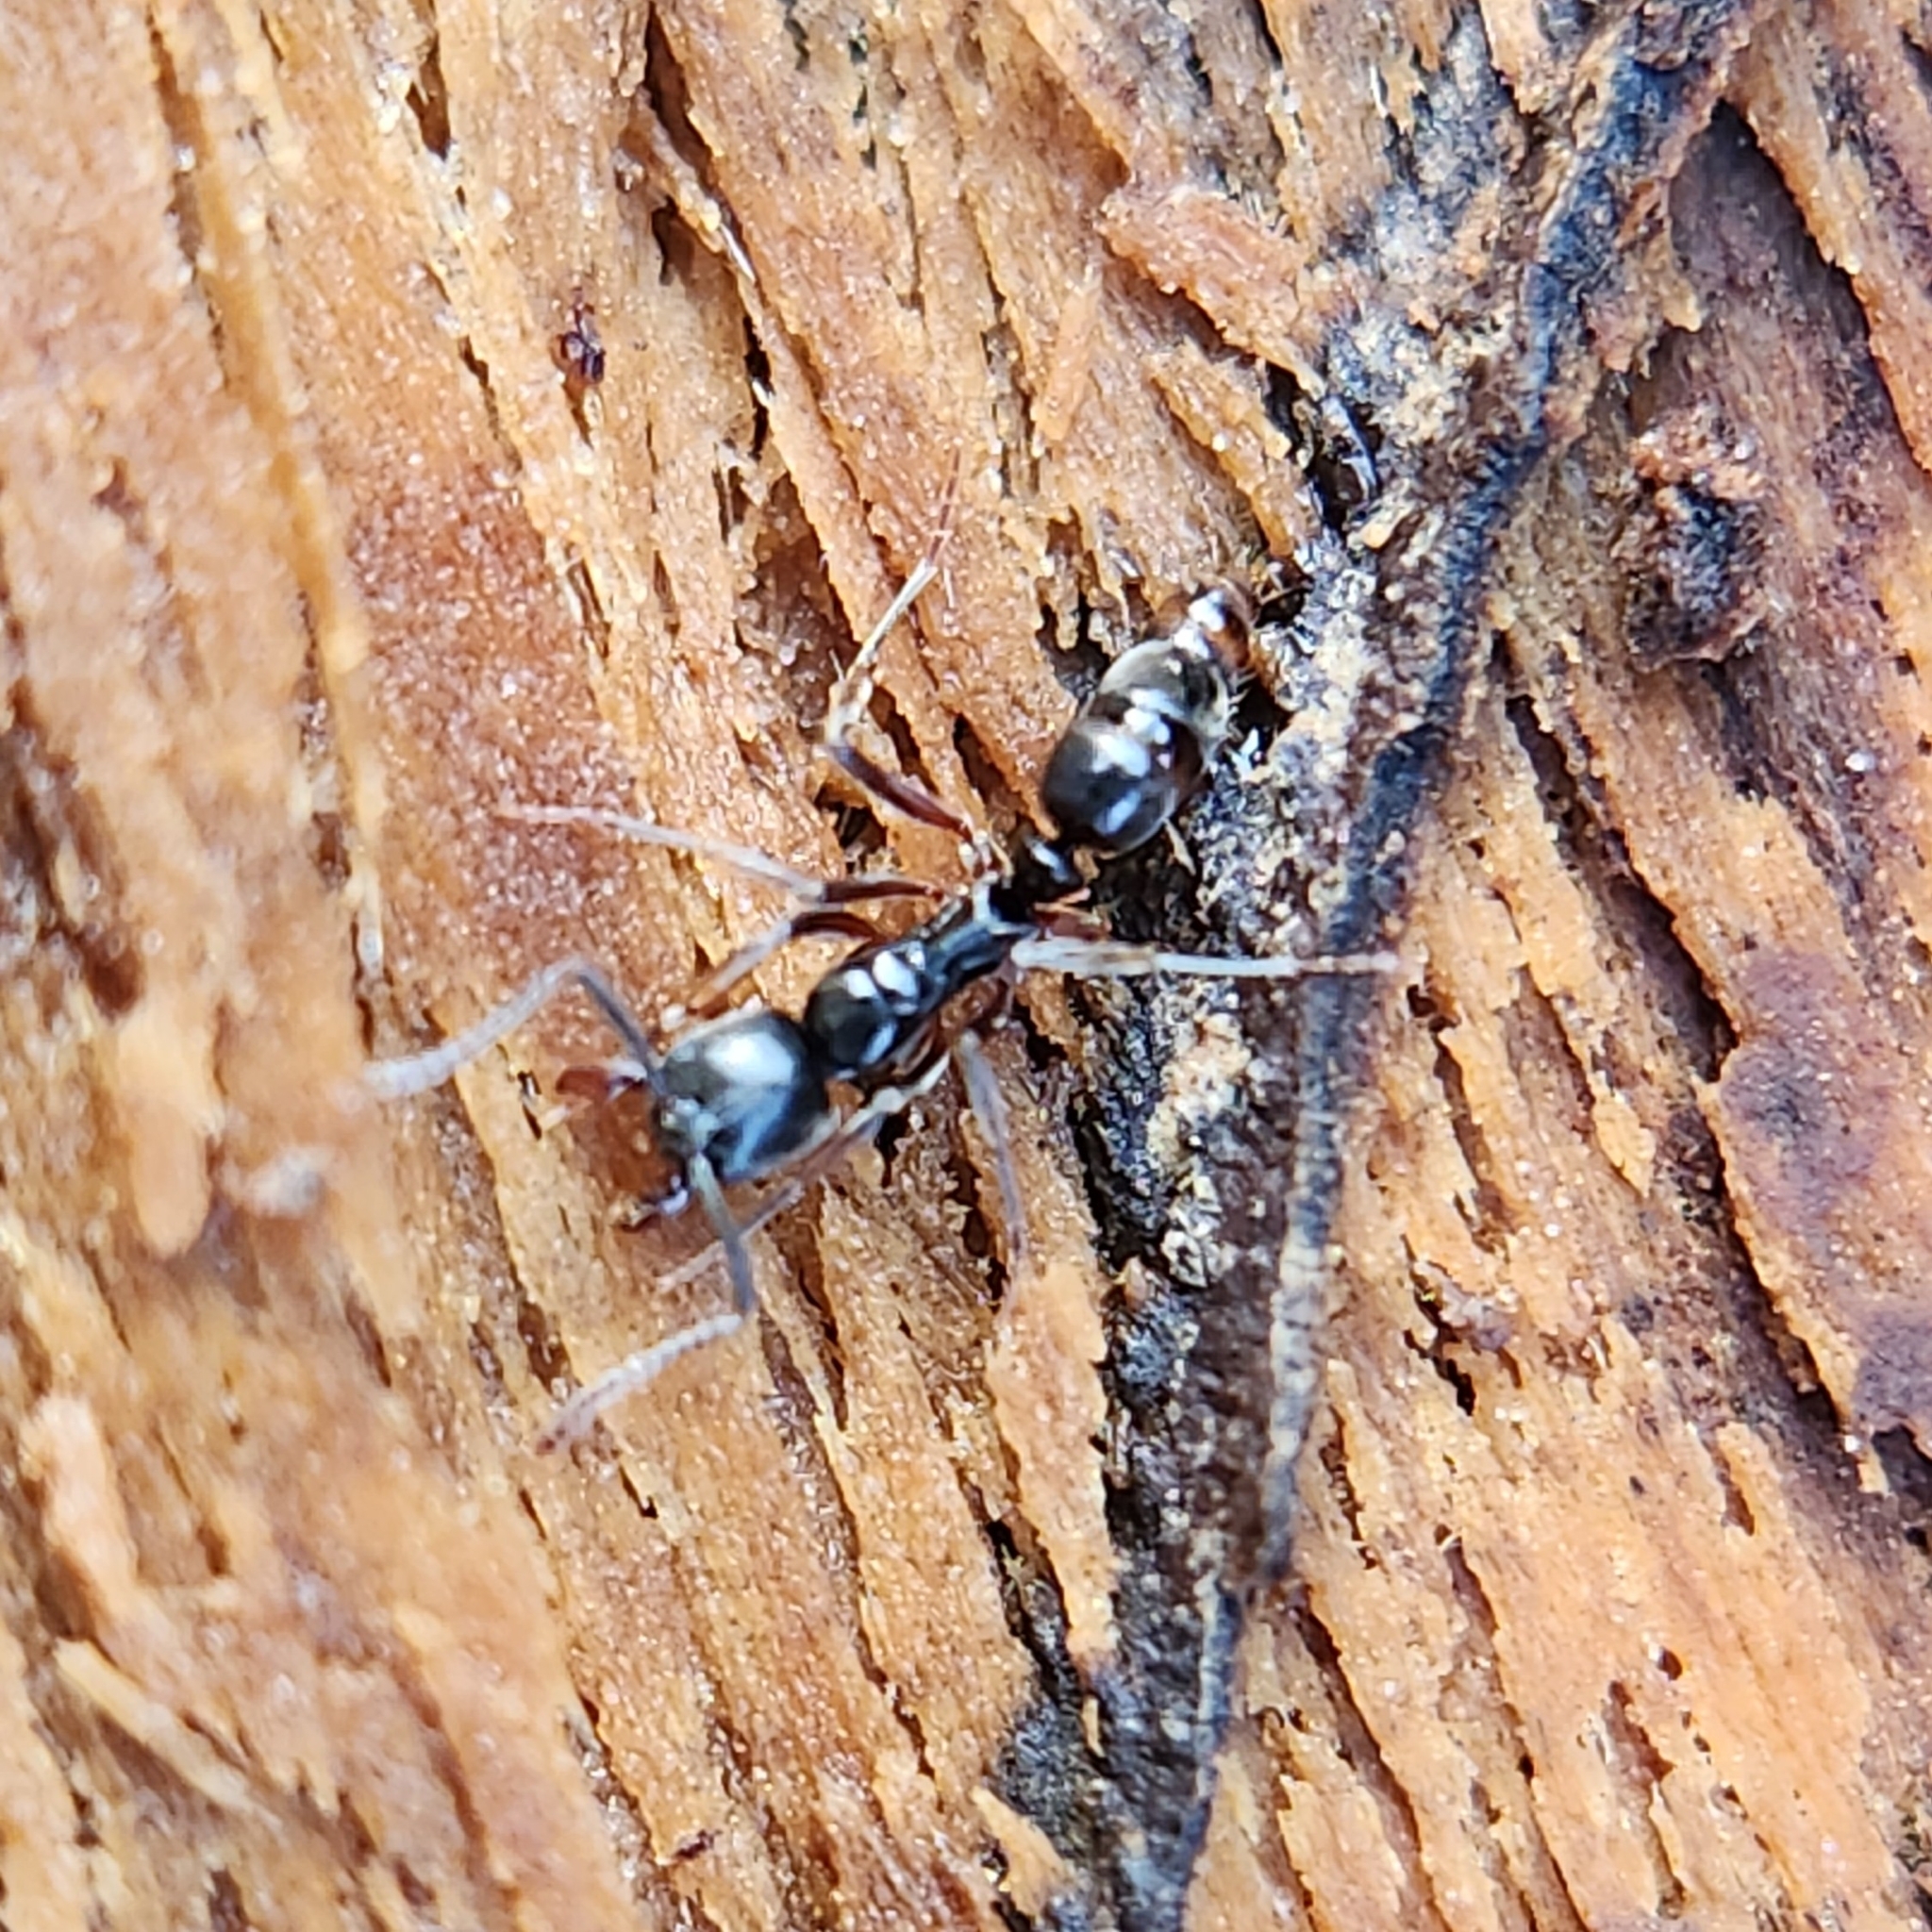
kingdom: Animalia
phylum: Arthropoda
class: Insecta
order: Hymenoptera
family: Formicidae
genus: Pachycondyla
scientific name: Pachycondyla chinensis
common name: Asian needle ant
